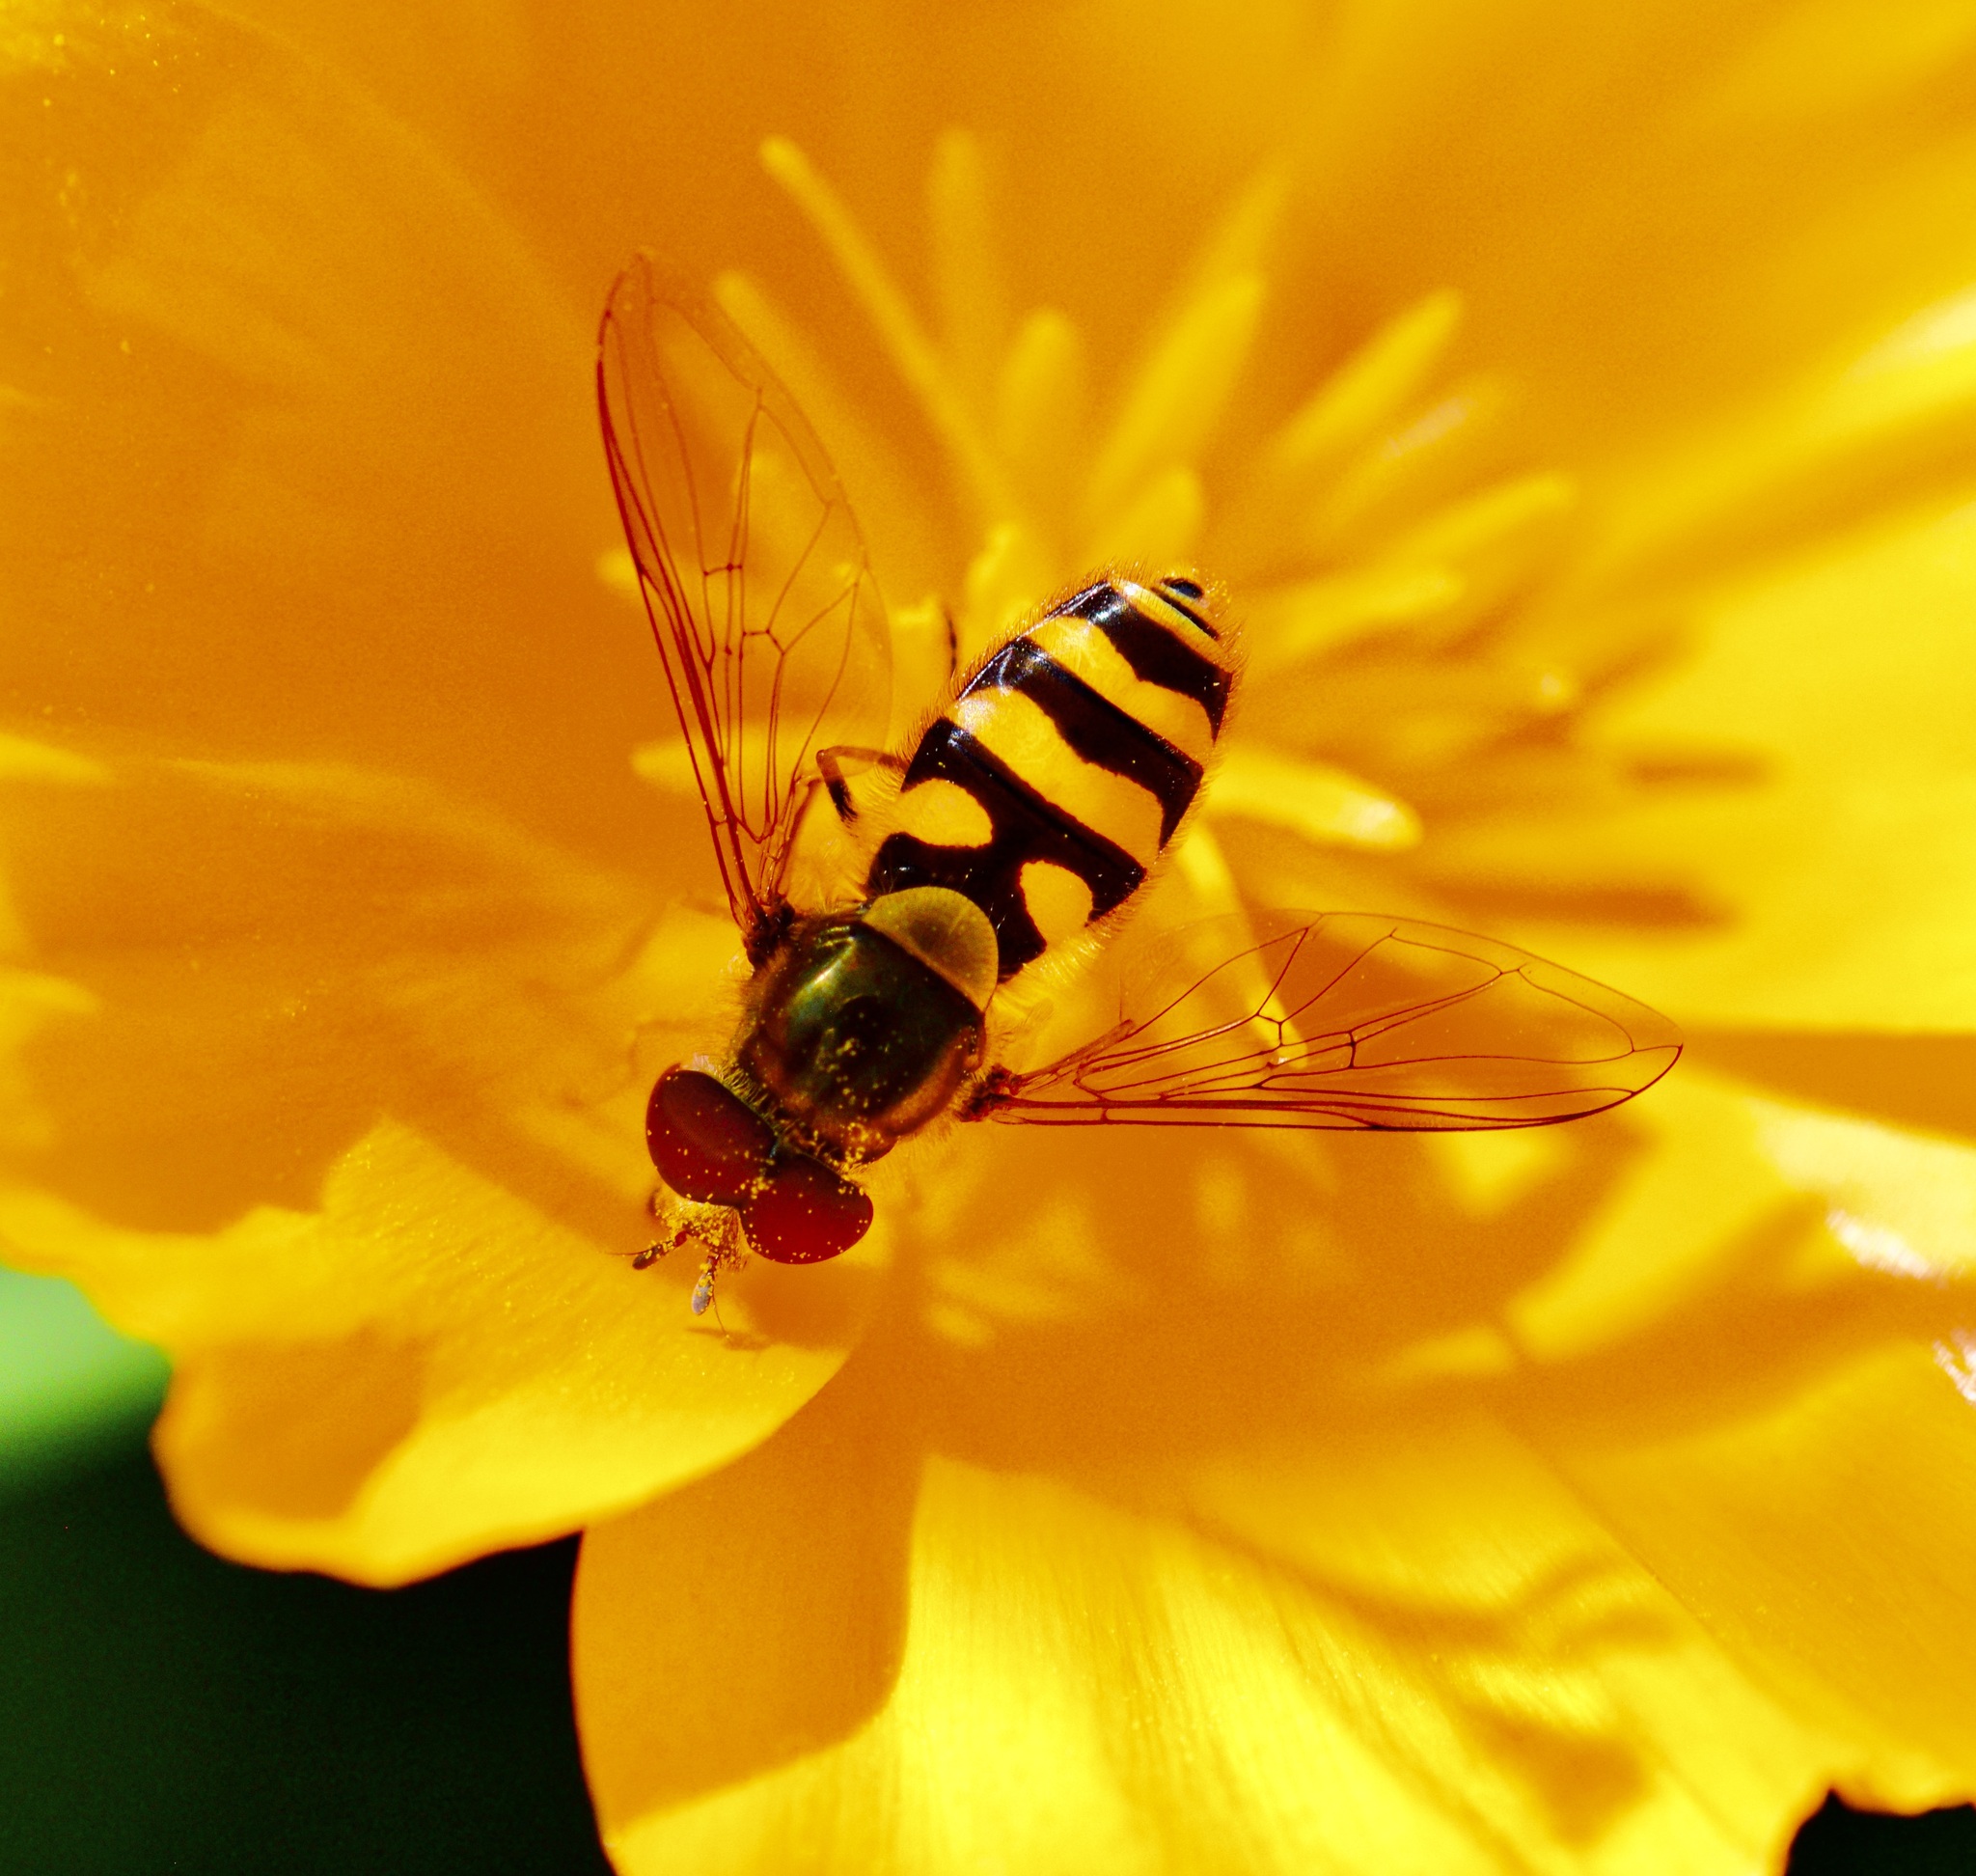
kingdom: Animalia
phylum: Arthropoda
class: Insecta
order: Diptera
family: Syrphidae
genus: Syrphus
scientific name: Syrphus
